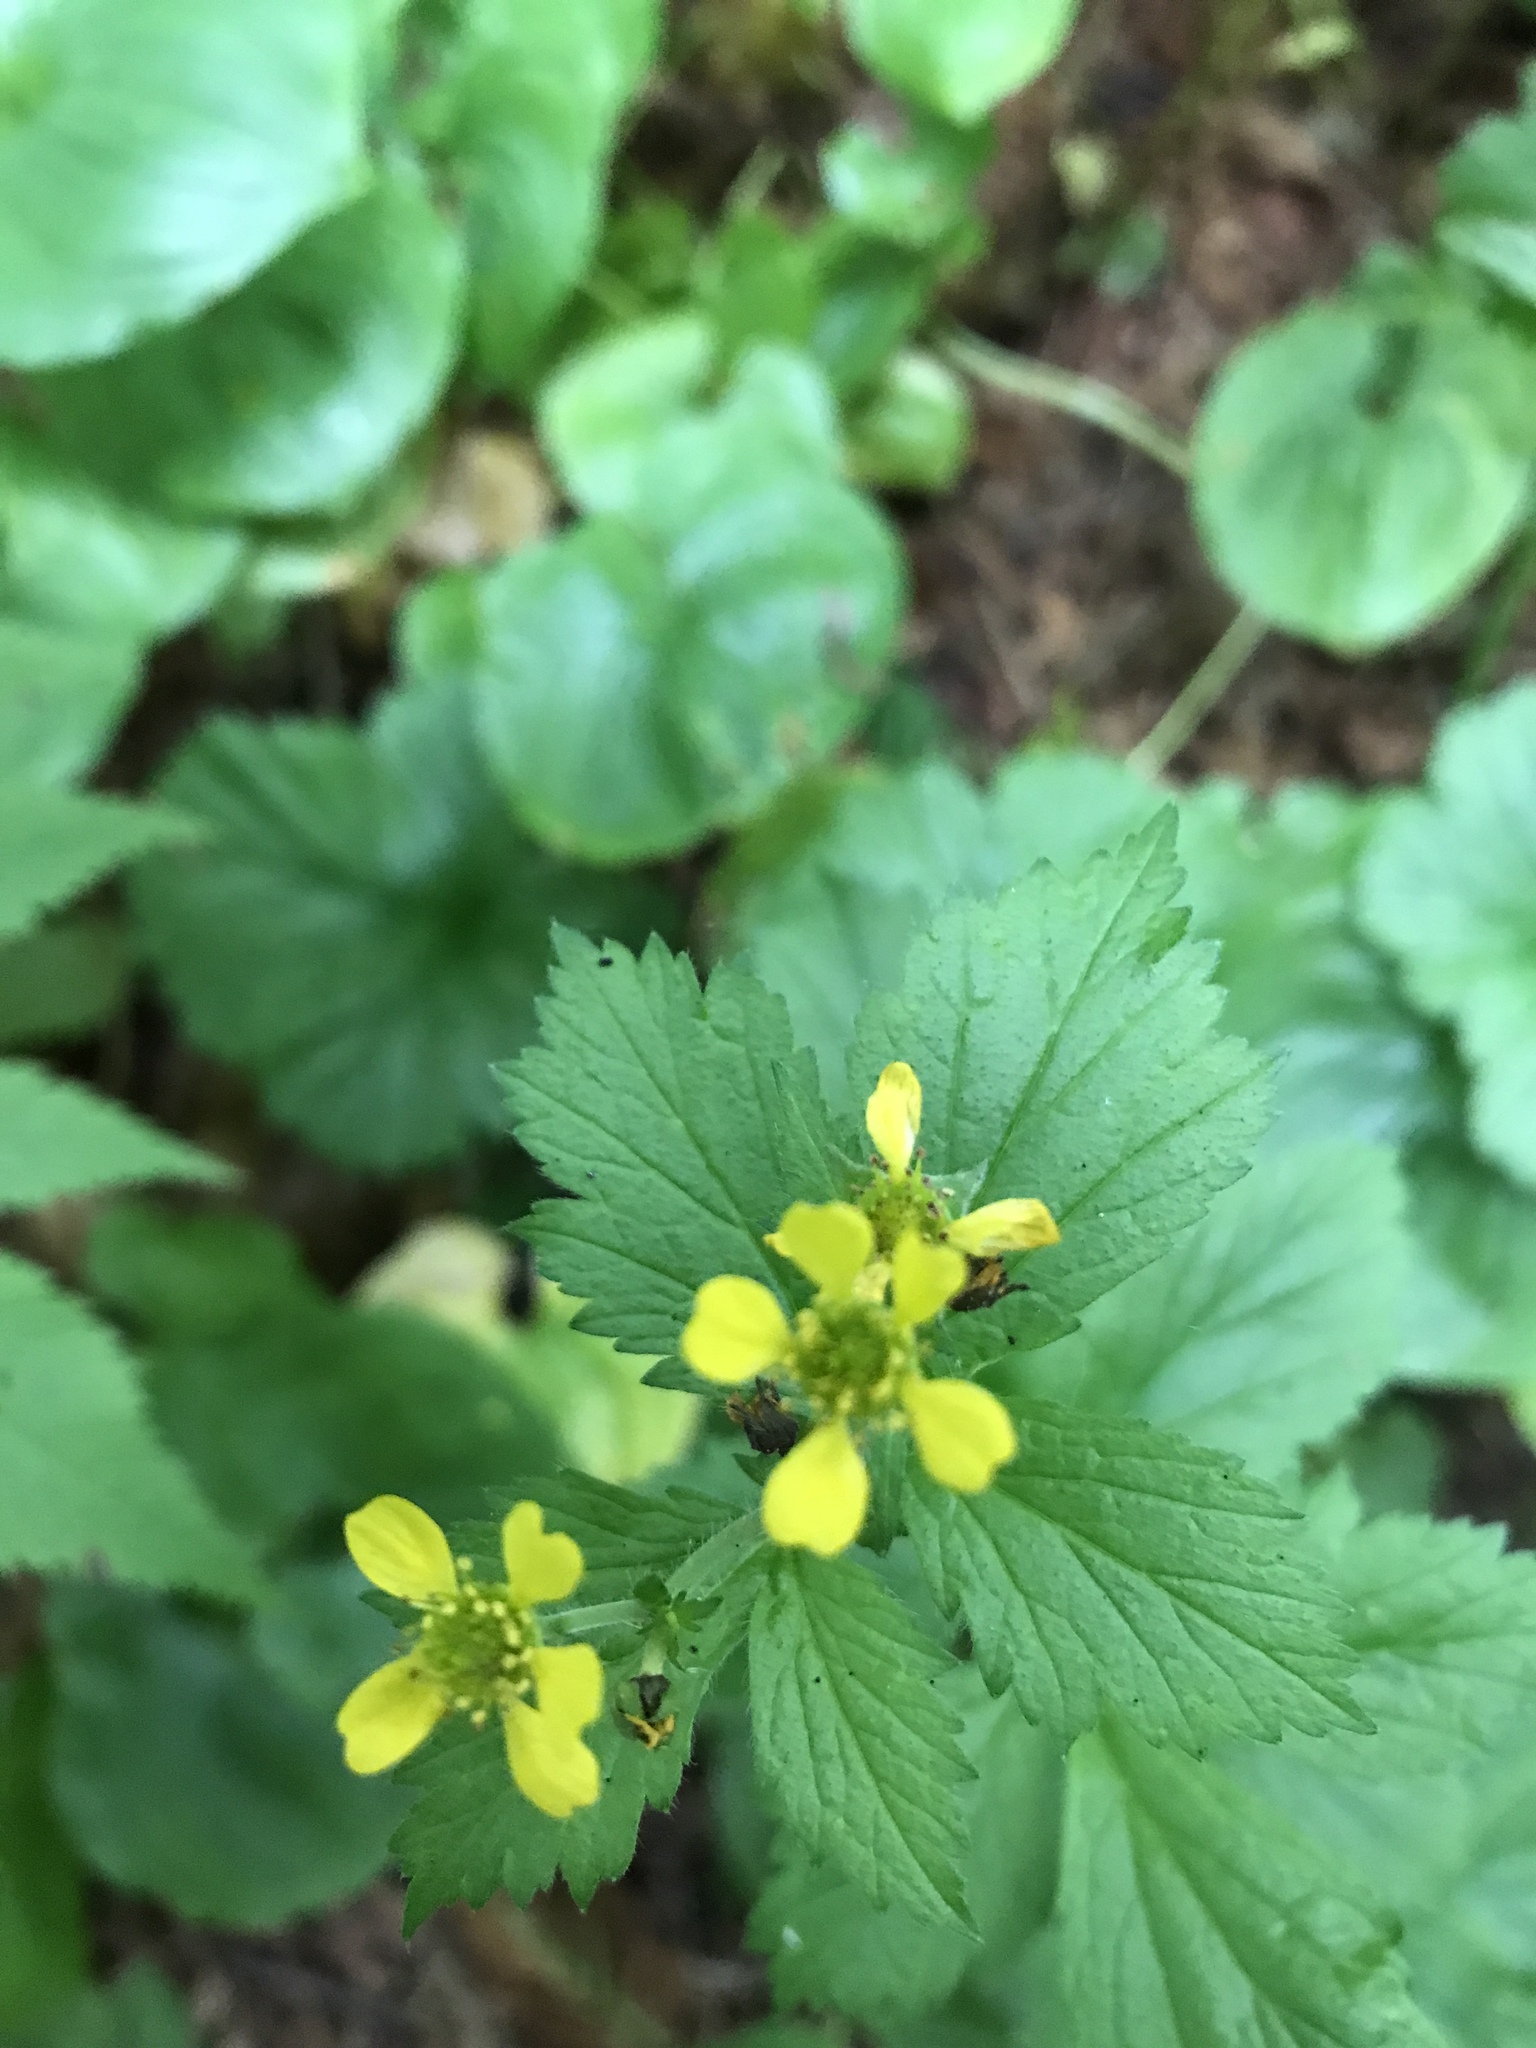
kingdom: Plantae
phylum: Tracheophyta
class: Magnoliopsida
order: Rosales
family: Rosaceae
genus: Geum
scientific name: Geum macrophyllum
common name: Large-leaved avens
